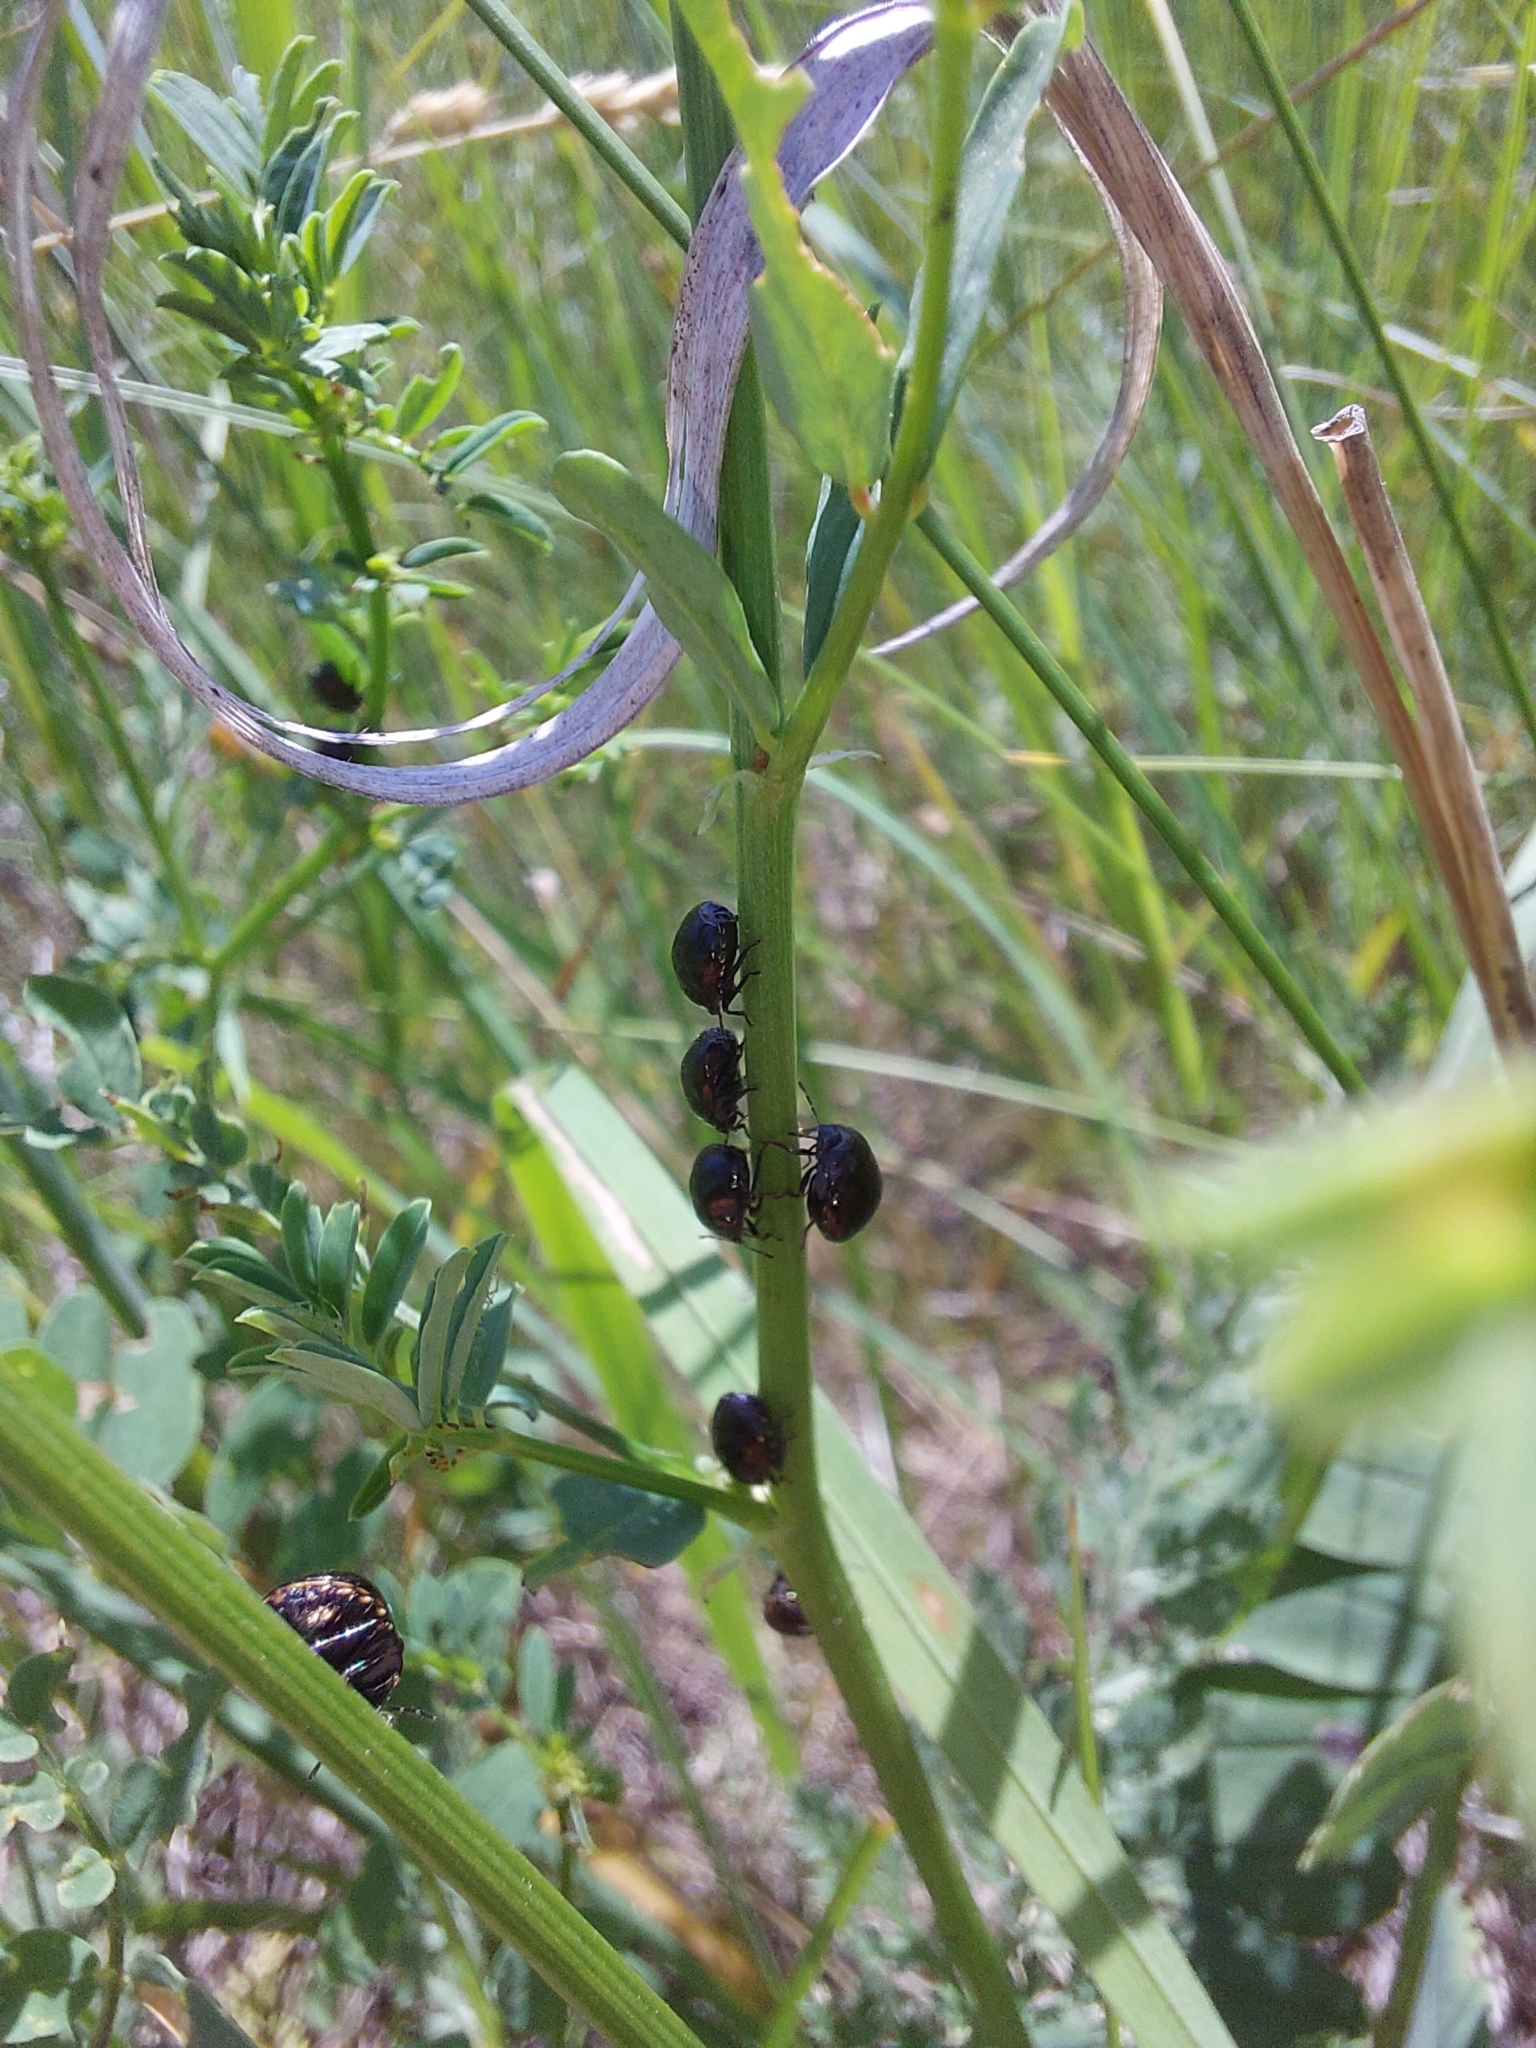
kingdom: Animalia
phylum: Arthropoda
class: Insecta
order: Hemiptera
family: Plataspidae
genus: Coptosoma
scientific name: Coptosoma scutellatum
